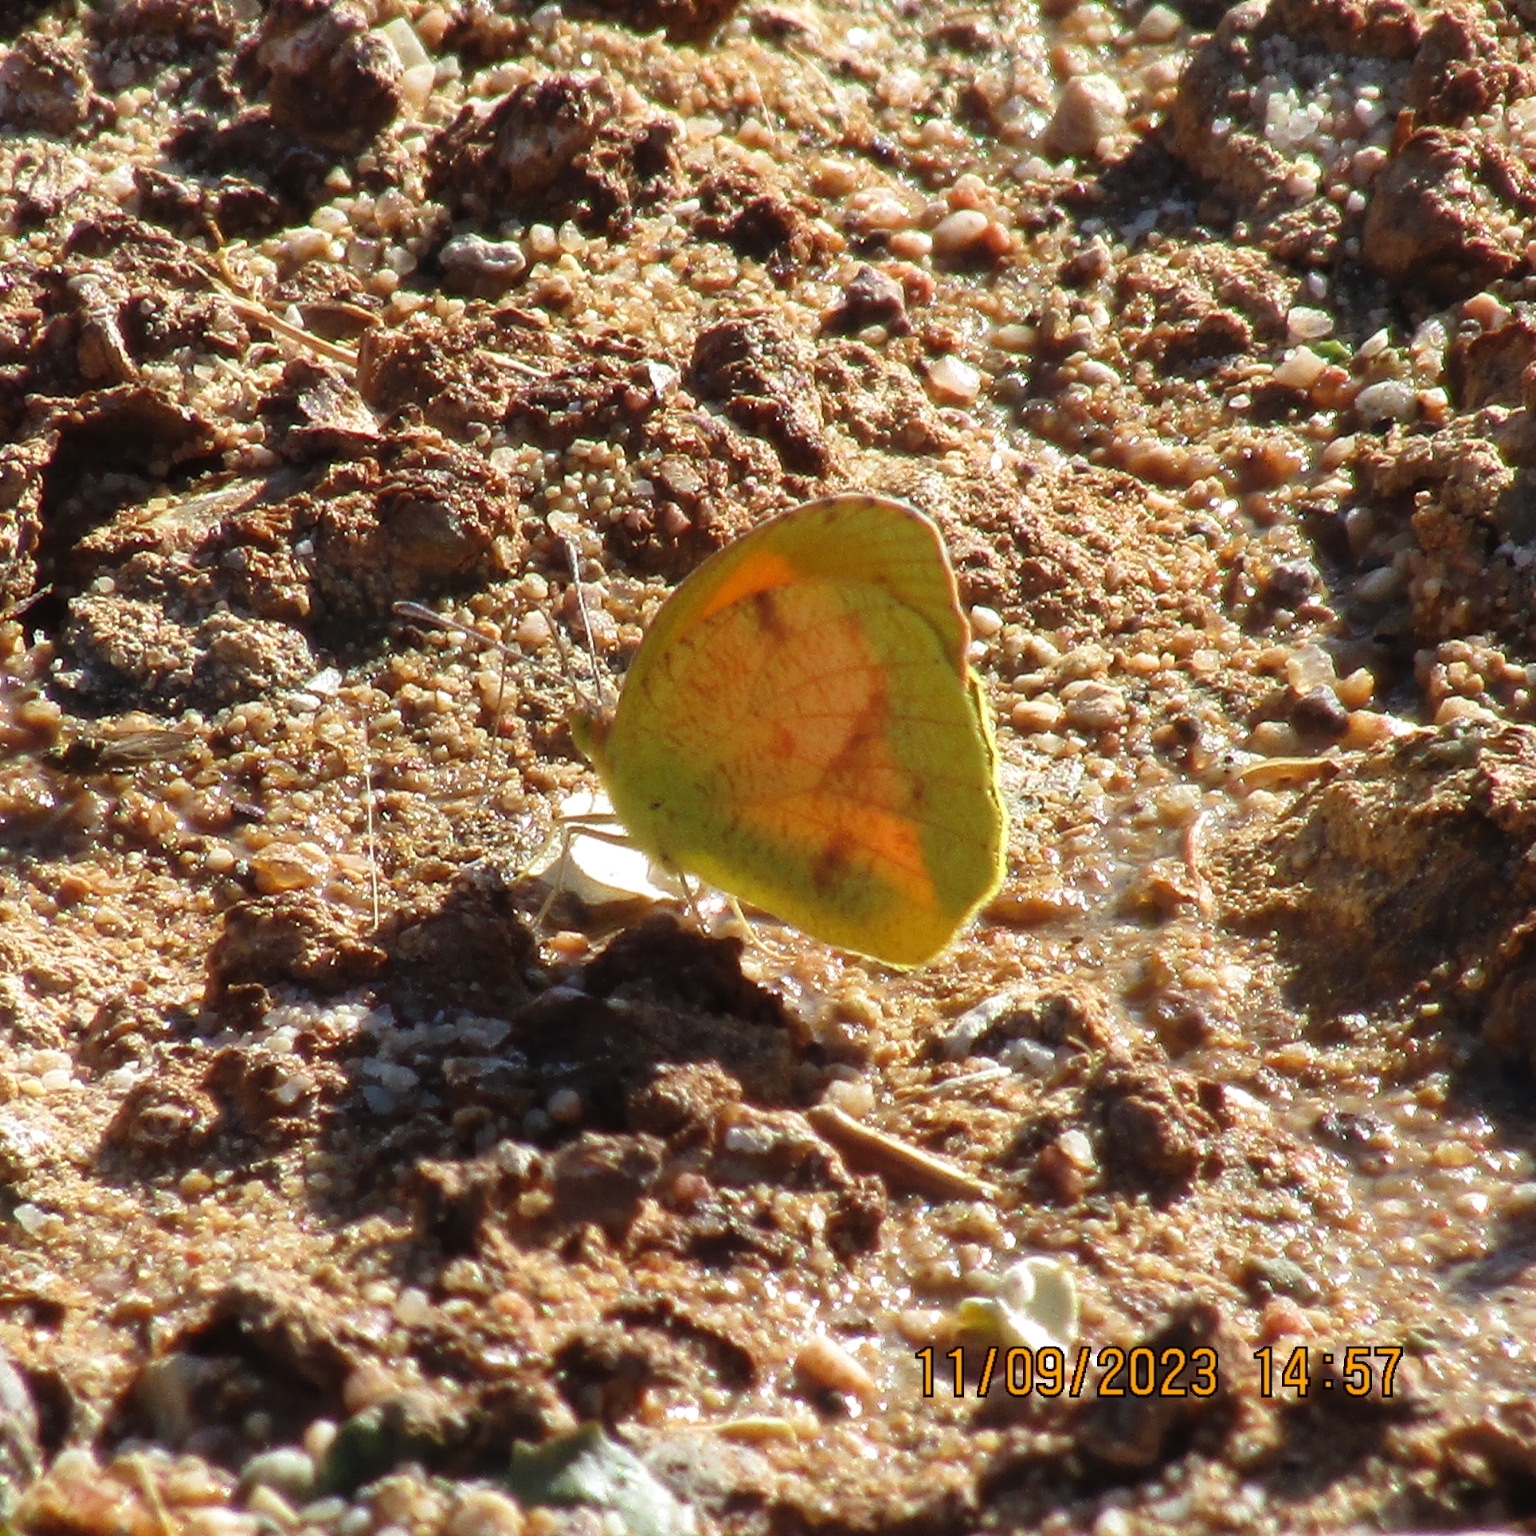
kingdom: Animalia
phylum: Arthropoda
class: Insecta
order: Lepidoptera
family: Pieridae
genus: Abaeis
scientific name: Abaeis nicippe
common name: Sleepy orange
